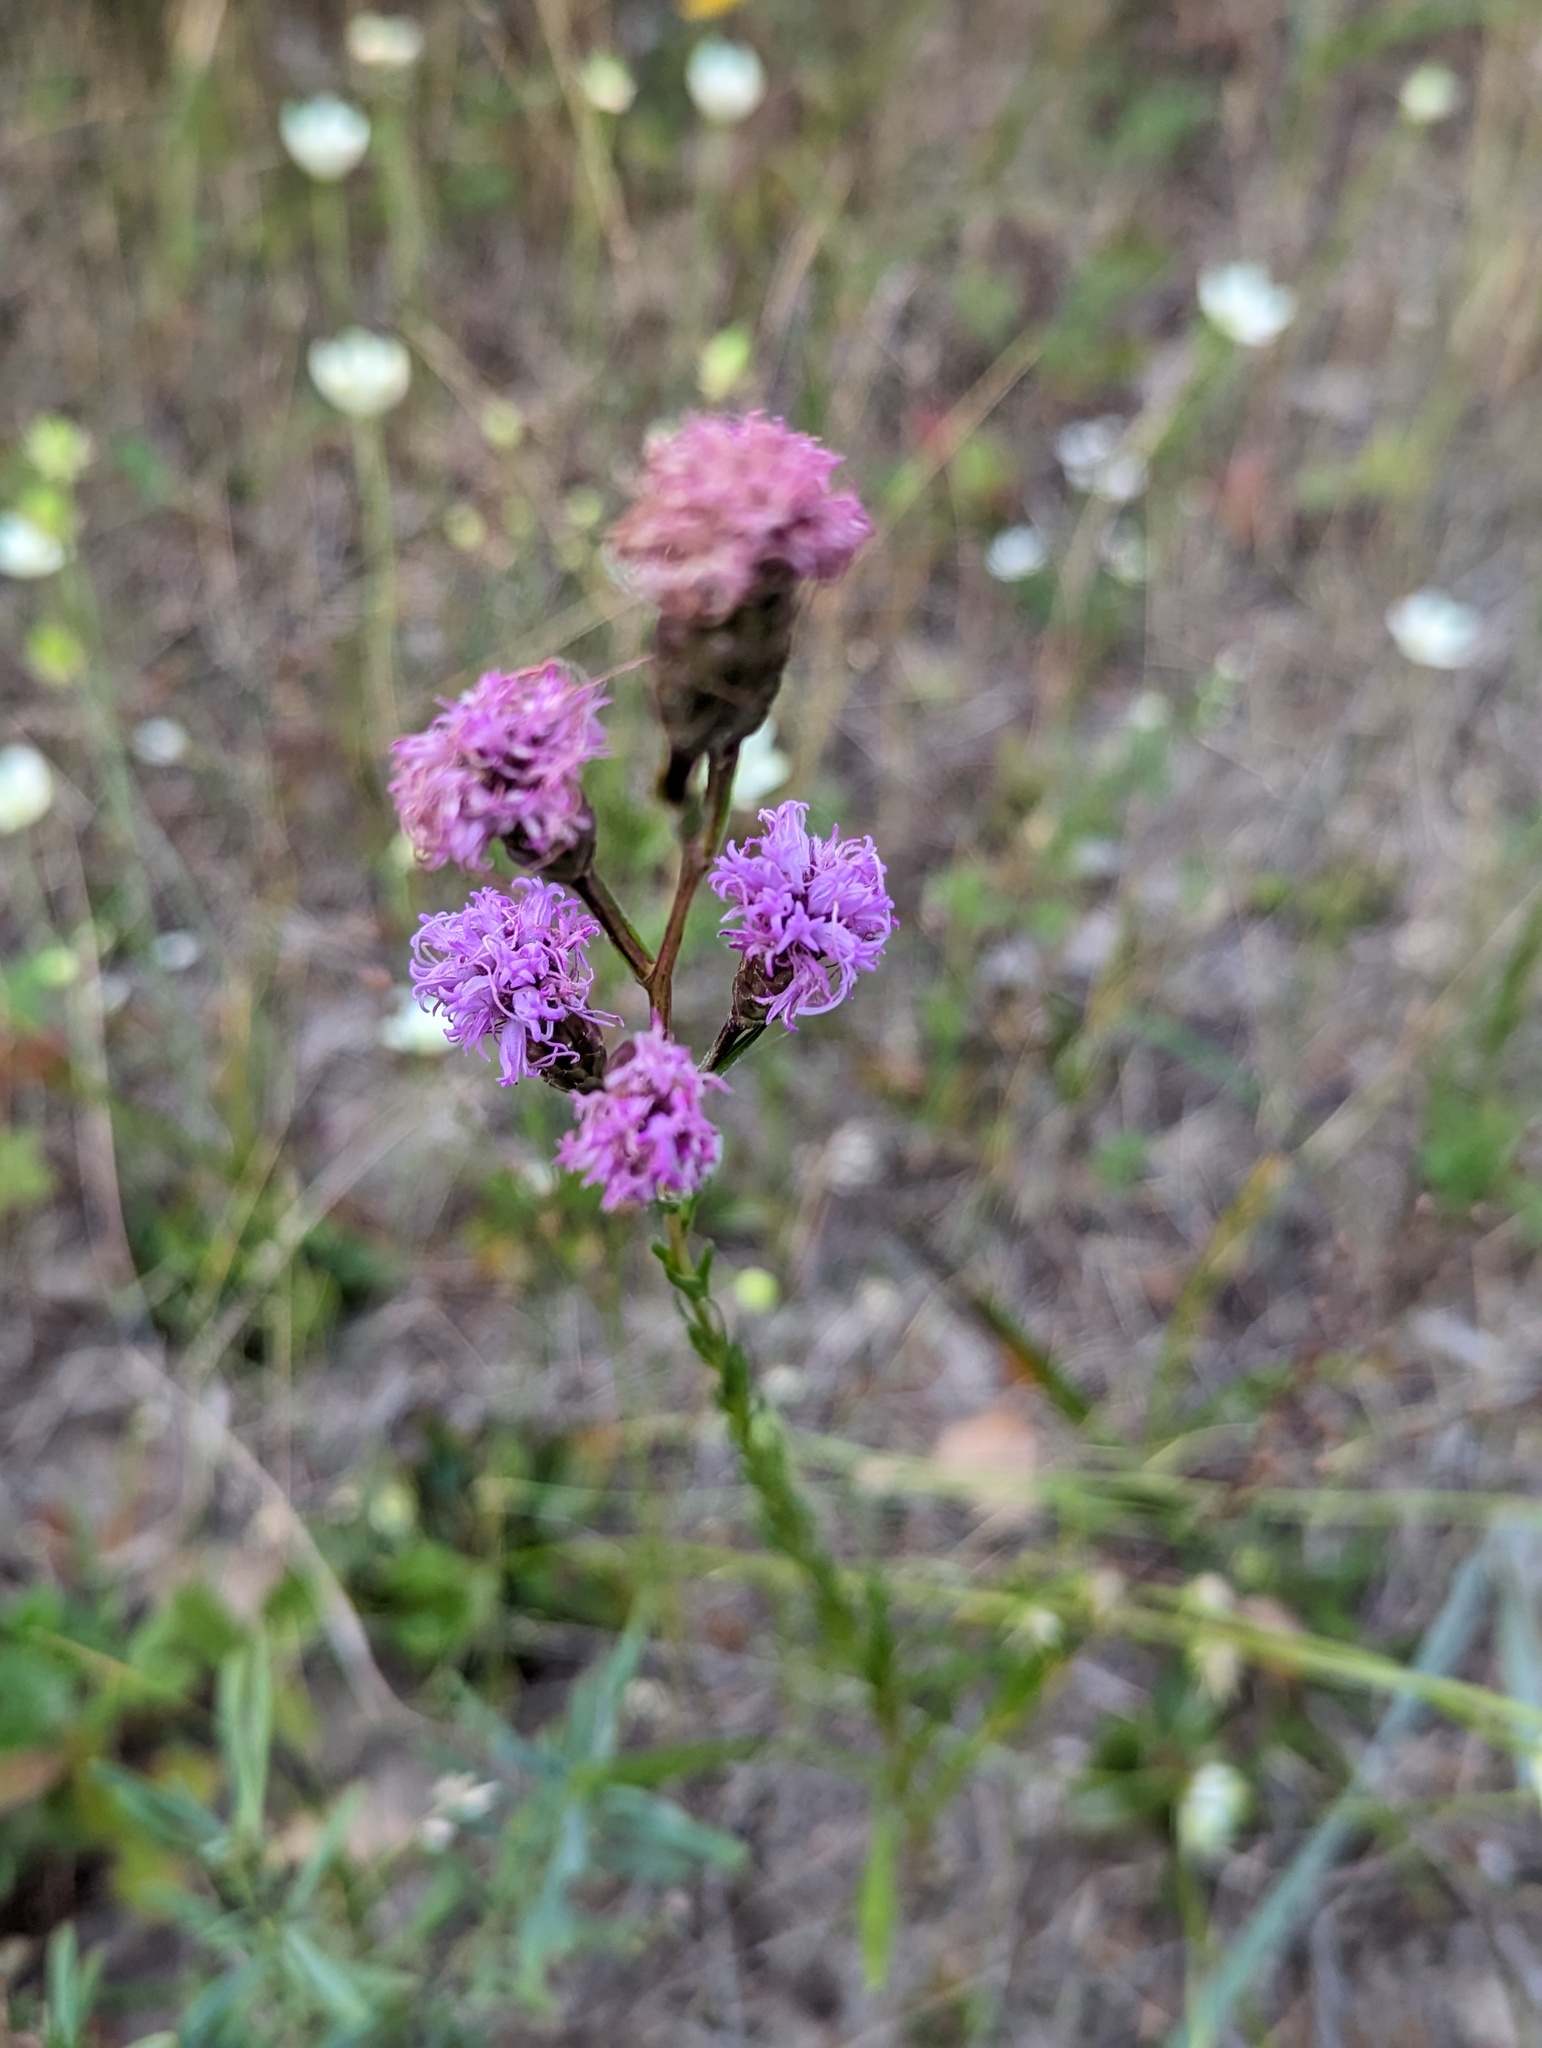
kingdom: Plantae
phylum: Tracheophyta
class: Magnoliopsida
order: Asterales
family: Asteraceae
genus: Liatris
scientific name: Liatris cylindracea
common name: Few-head blazingstar
